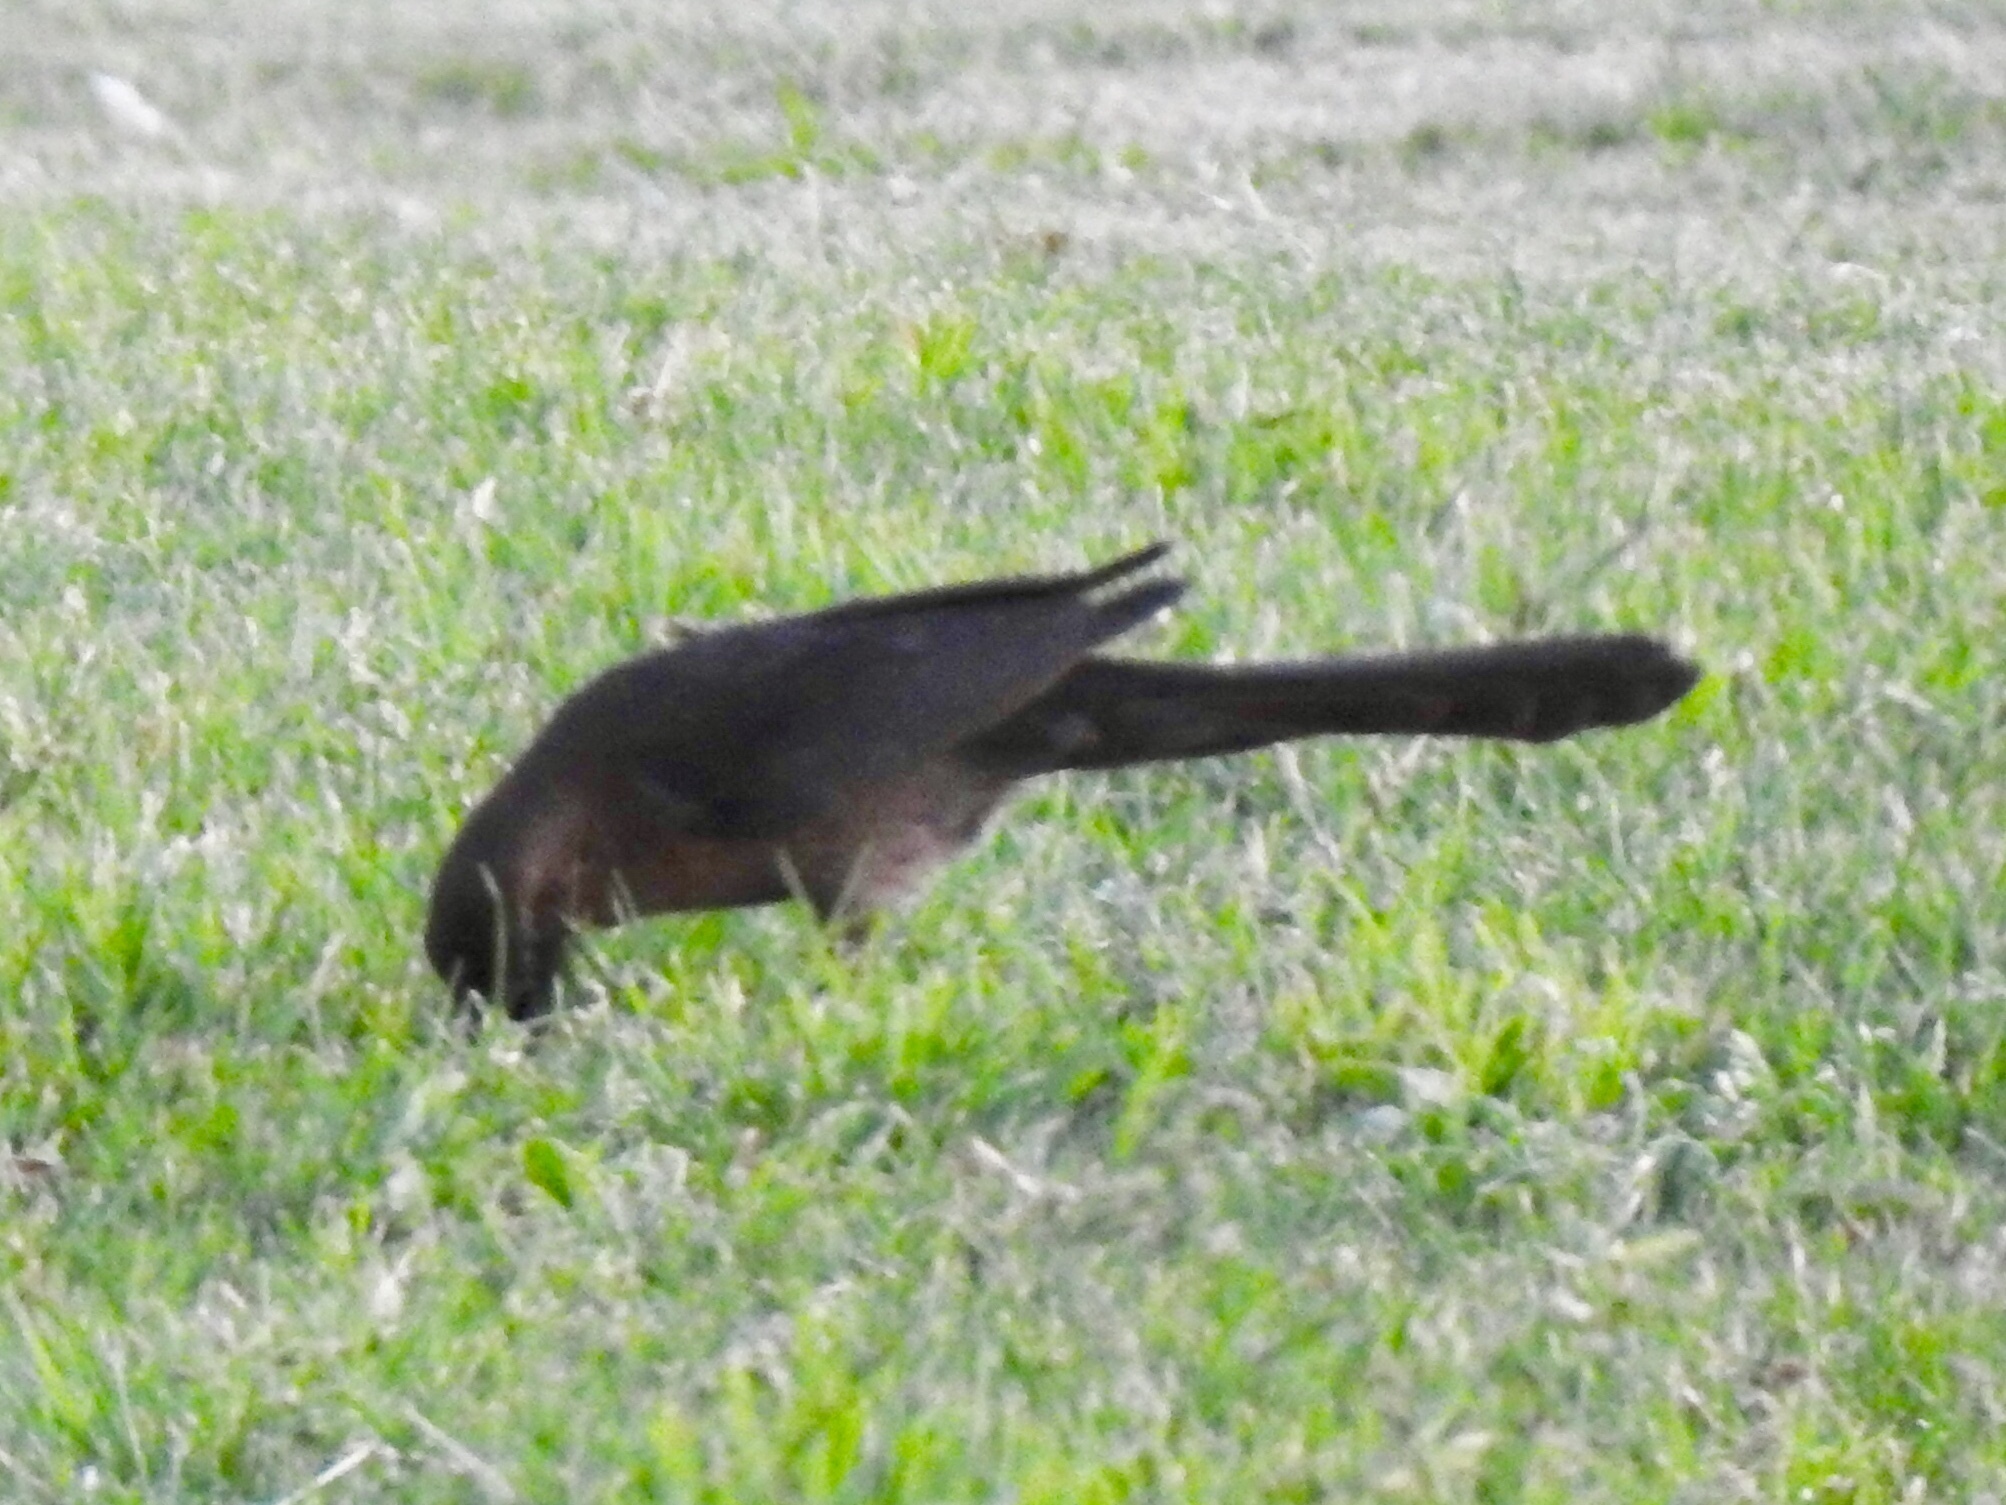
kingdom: Animalia
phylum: Chordata
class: Aves
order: Passeriformes
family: Icteridae
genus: Quiscalus
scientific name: Quiscalus mexicanus
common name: Great-tailed grackle
